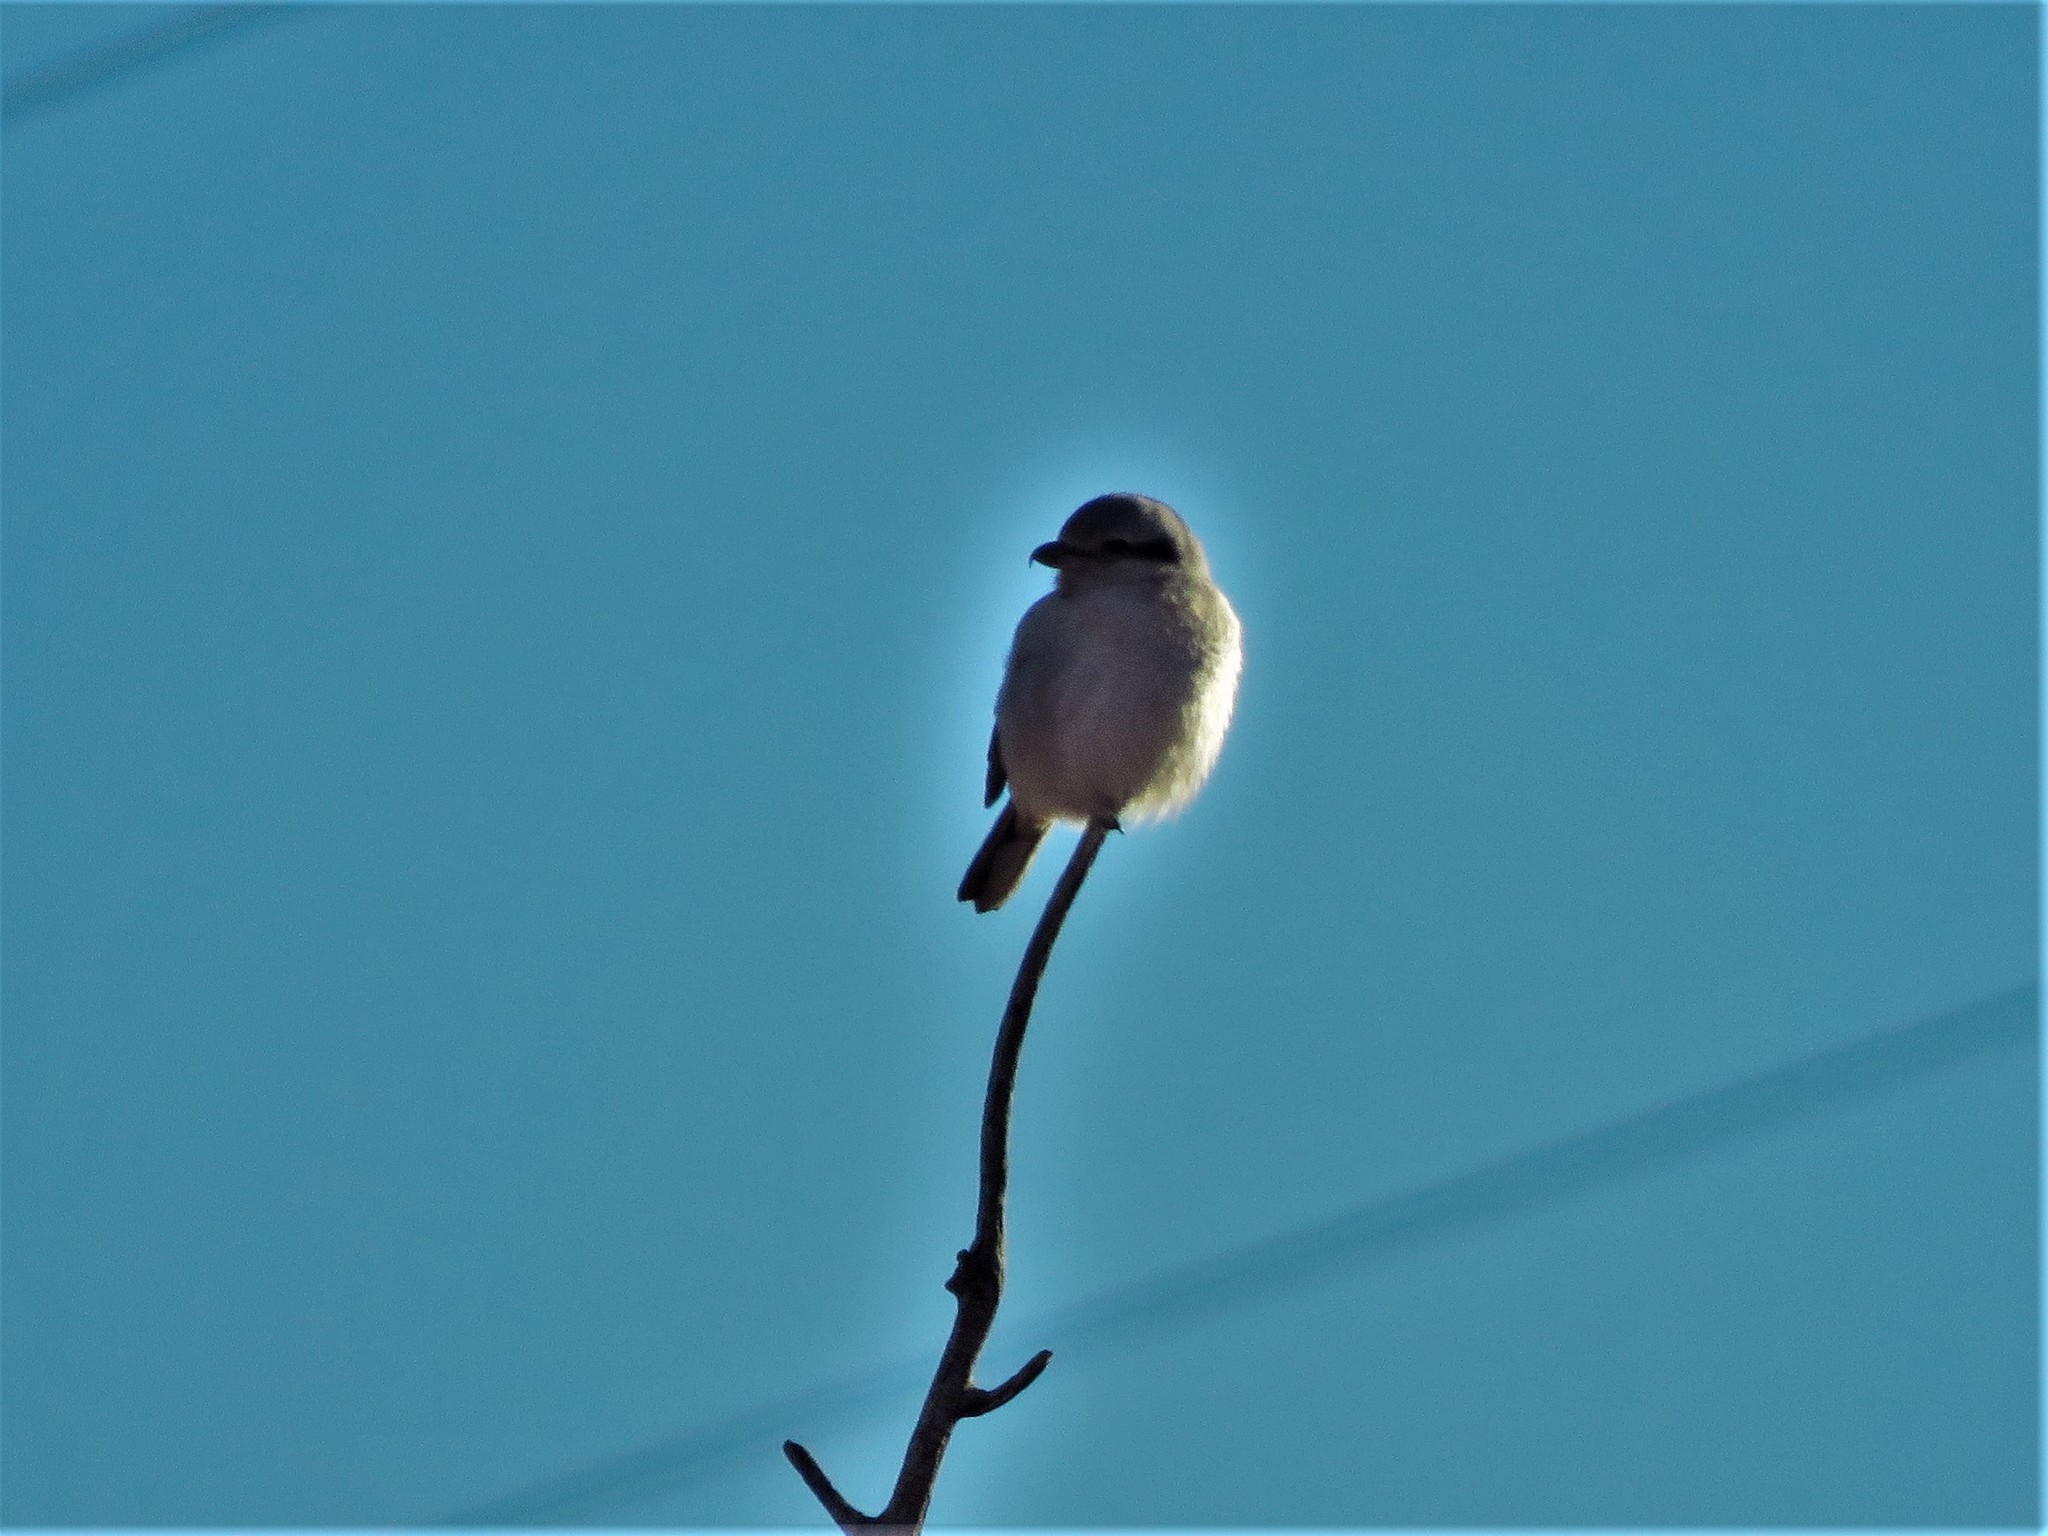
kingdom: Animalia
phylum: Chordata
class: Aves
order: Passeriformes
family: Laniidae
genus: Lanius
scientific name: Lanius borealis
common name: Northern shrike
